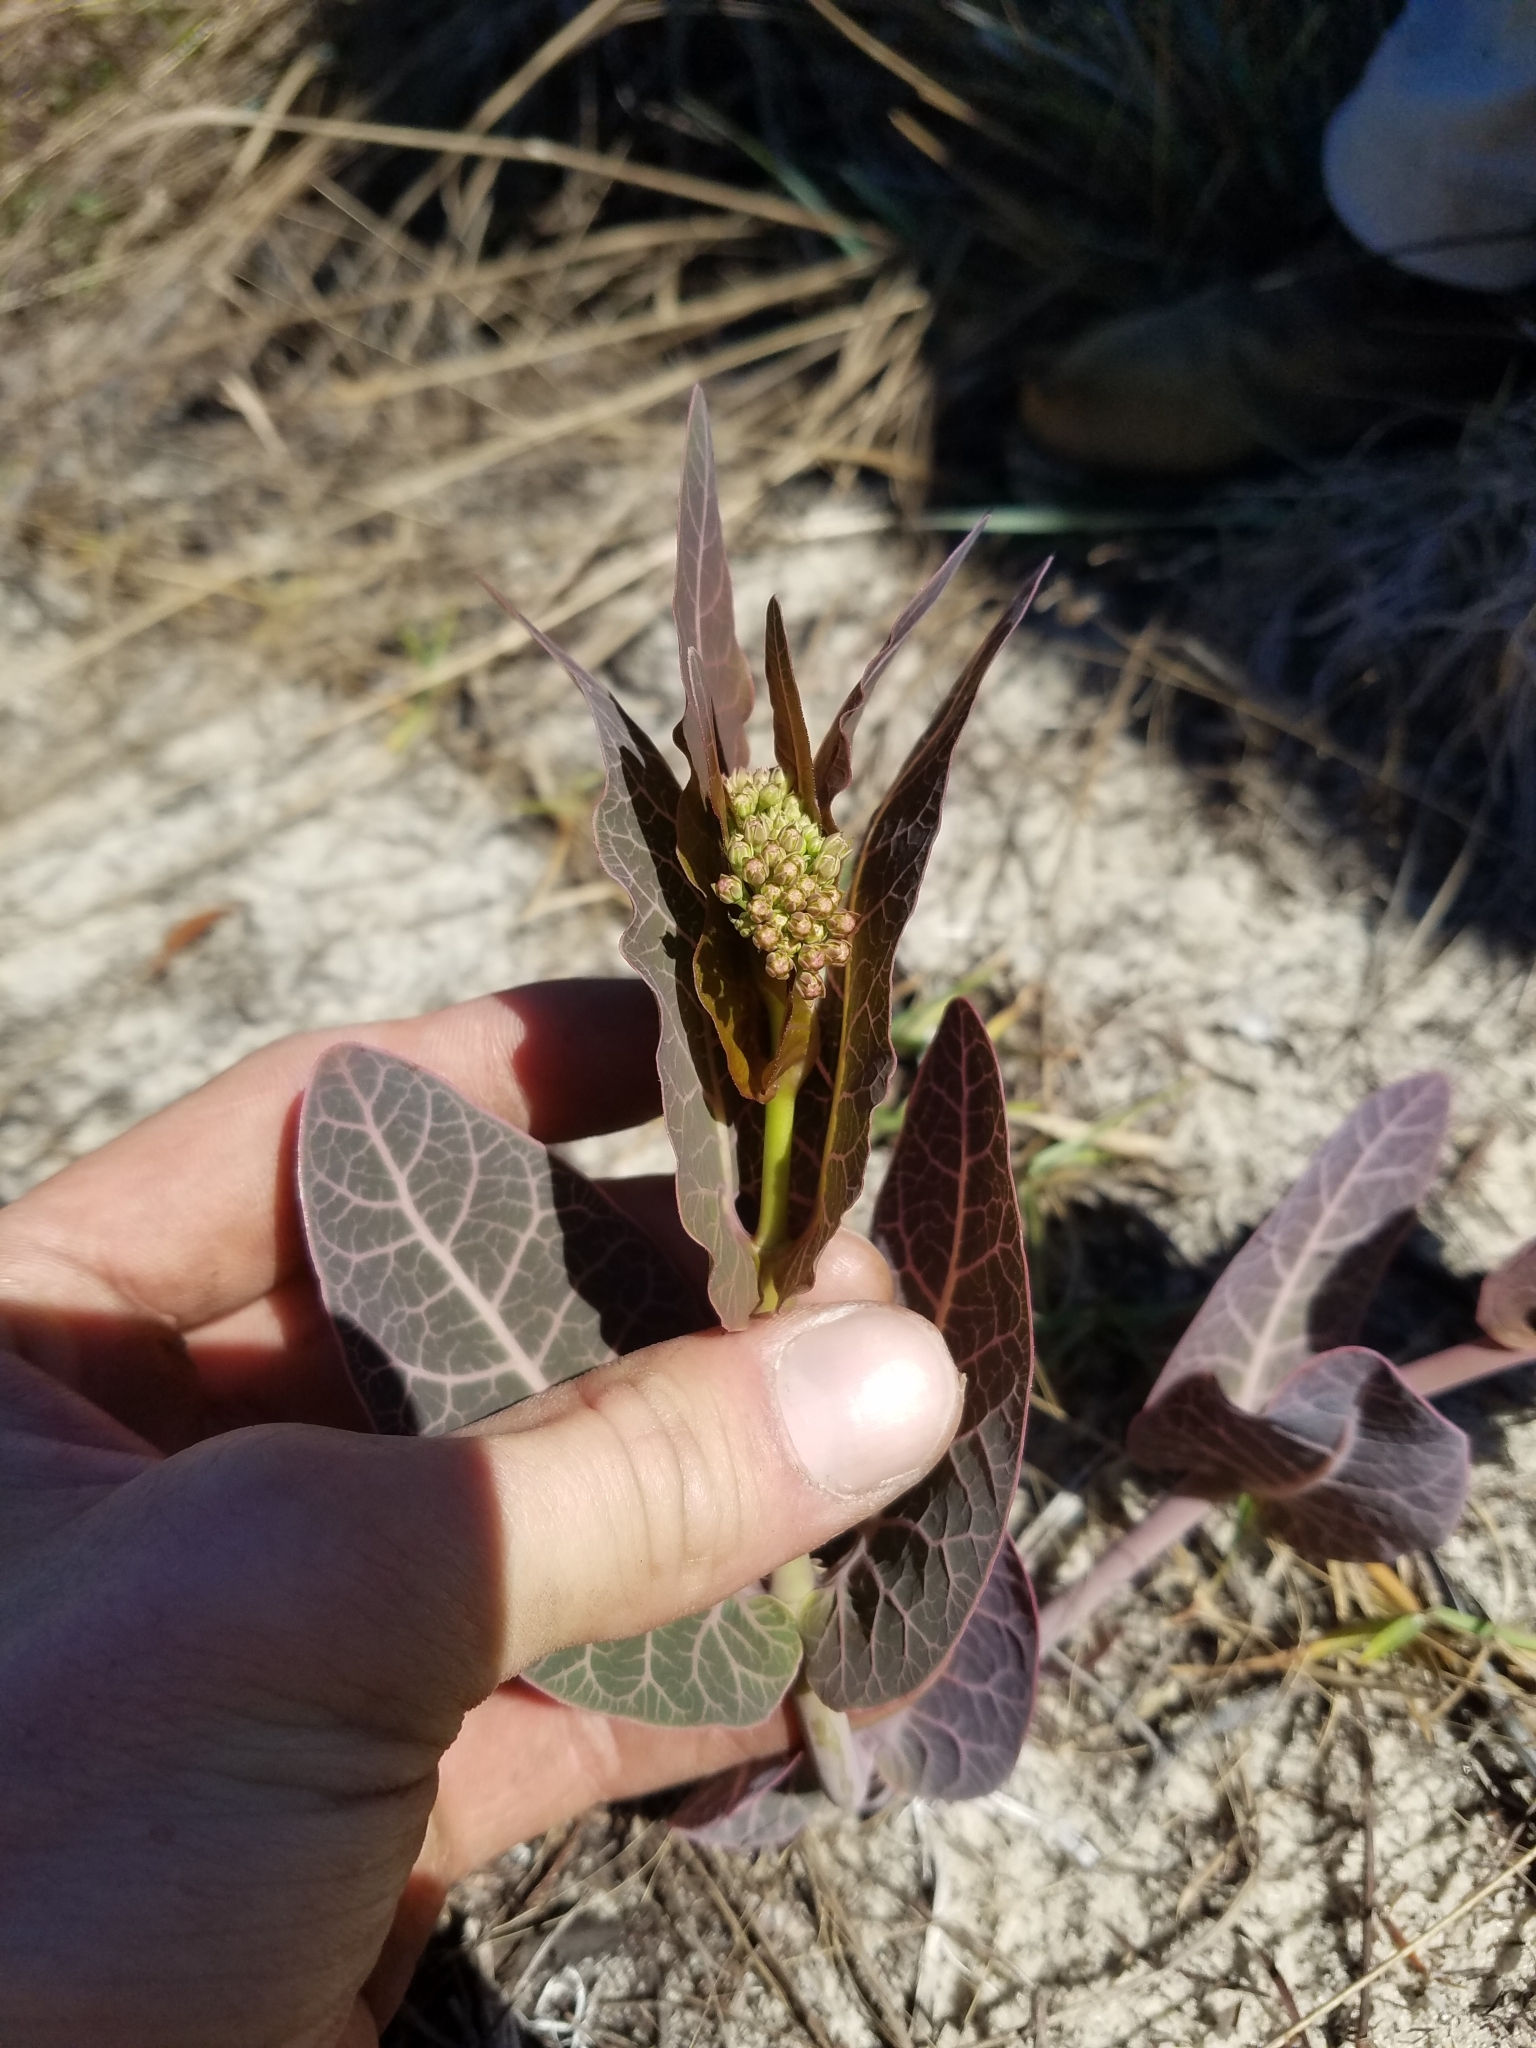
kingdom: Plantae
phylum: Tracheophyta
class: Magnoliopsida
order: Gentianales
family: Apocynaceae
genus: Asclepias
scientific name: Asclepias humistrata
